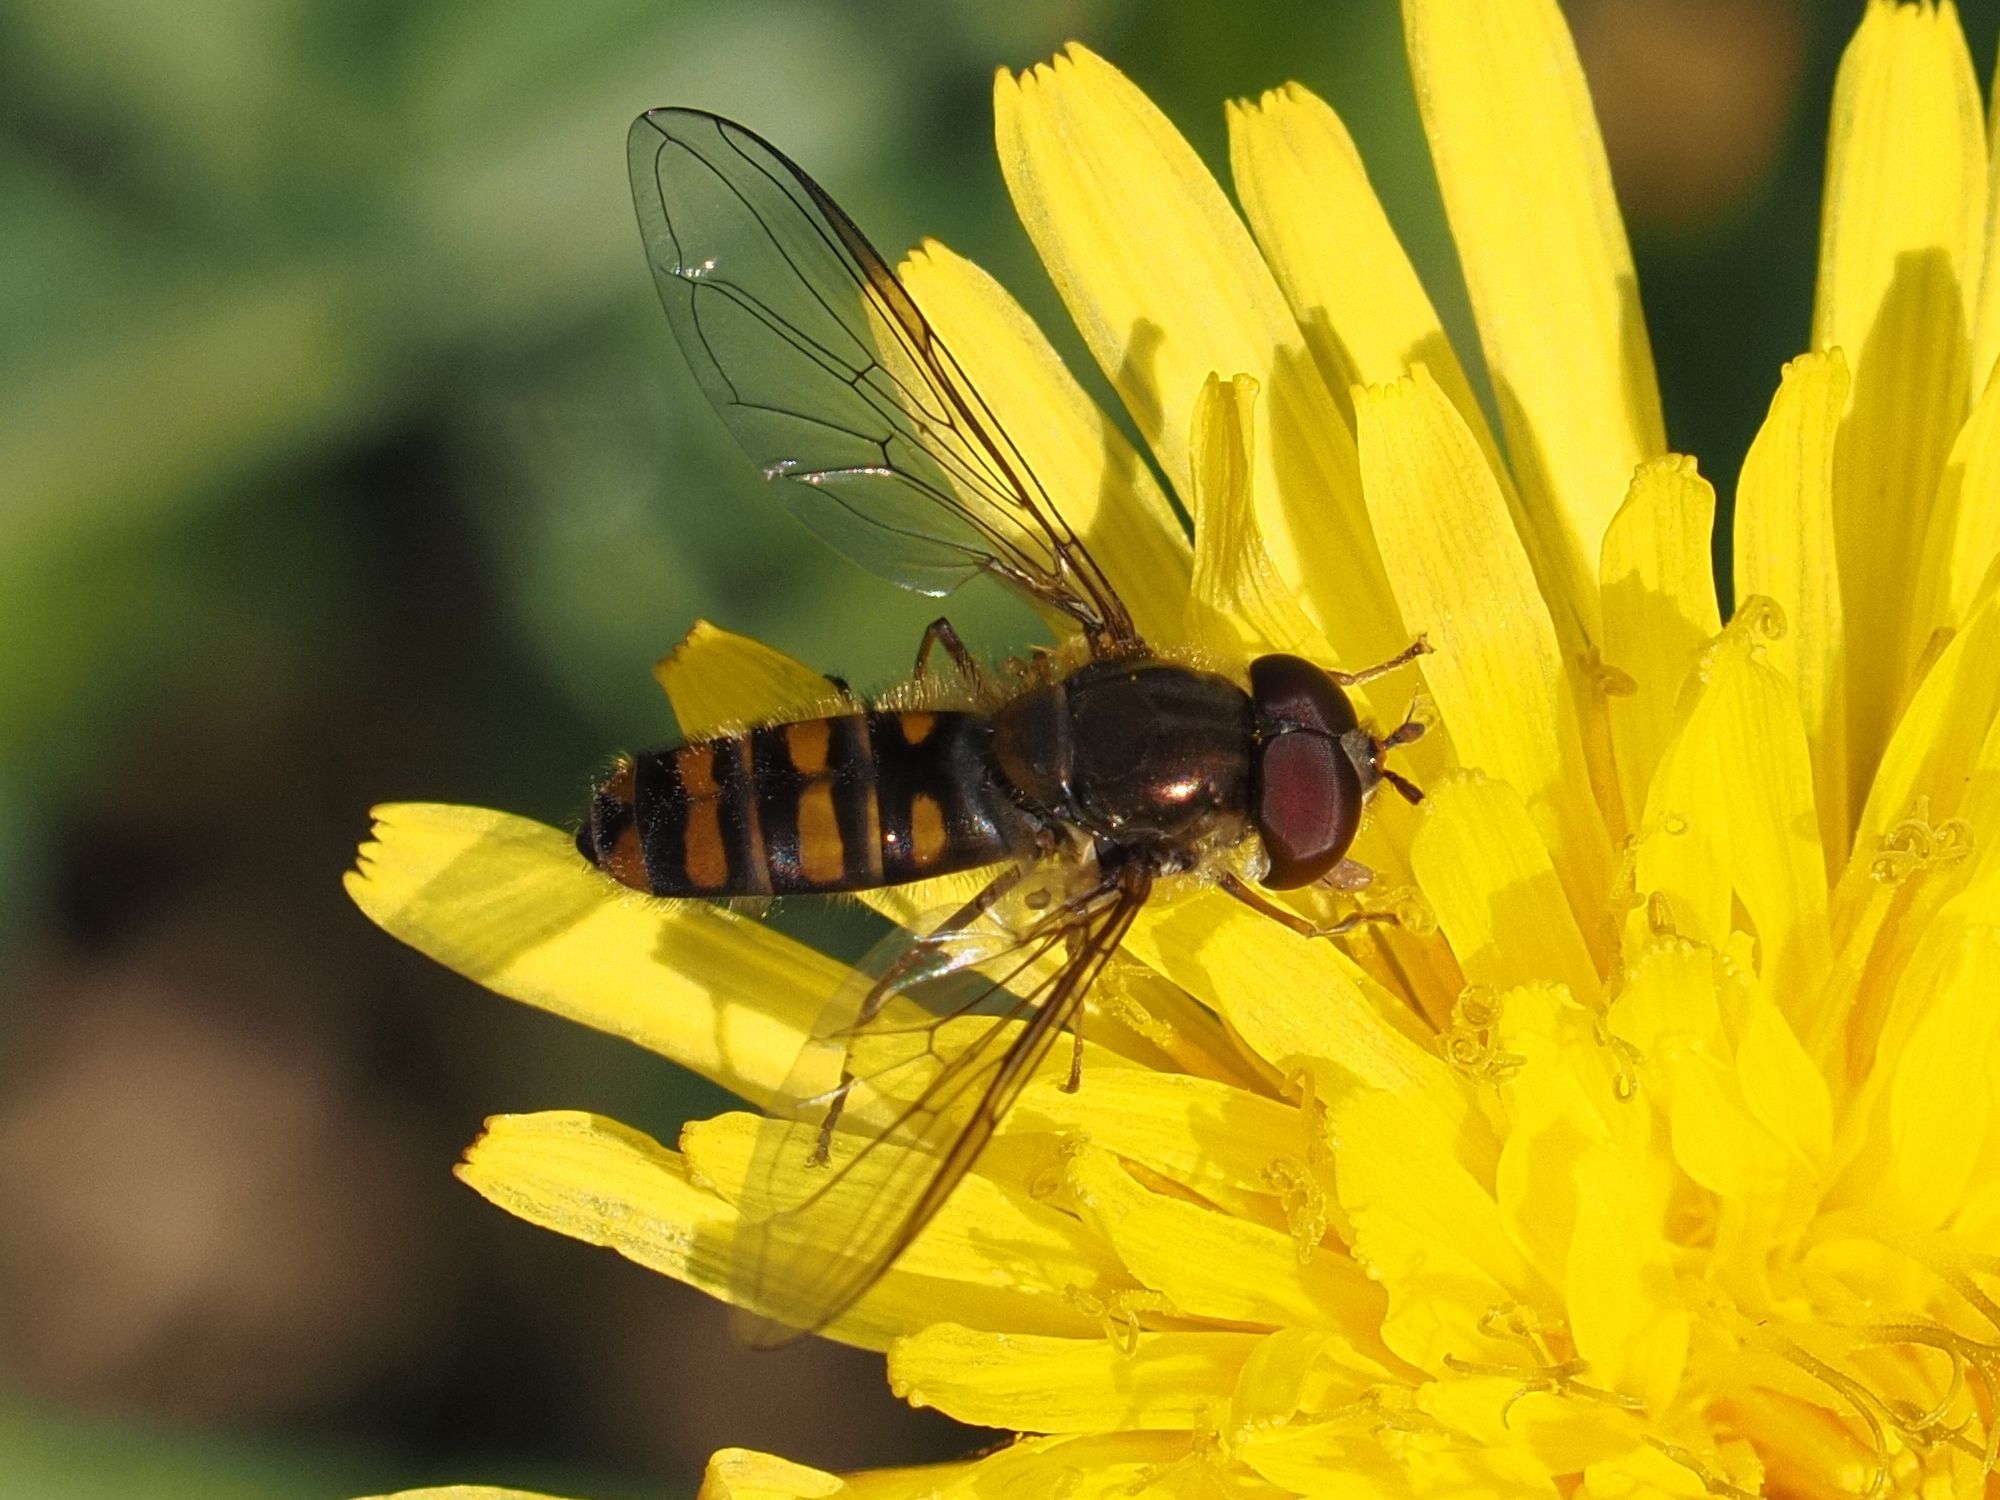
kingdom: Animalia
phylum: Arthropoda
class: Insecta
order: Diptera
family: Syrphidae
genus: Episyrphus
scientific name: Episyrphus balteatus
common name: Marmalade hoverfly
